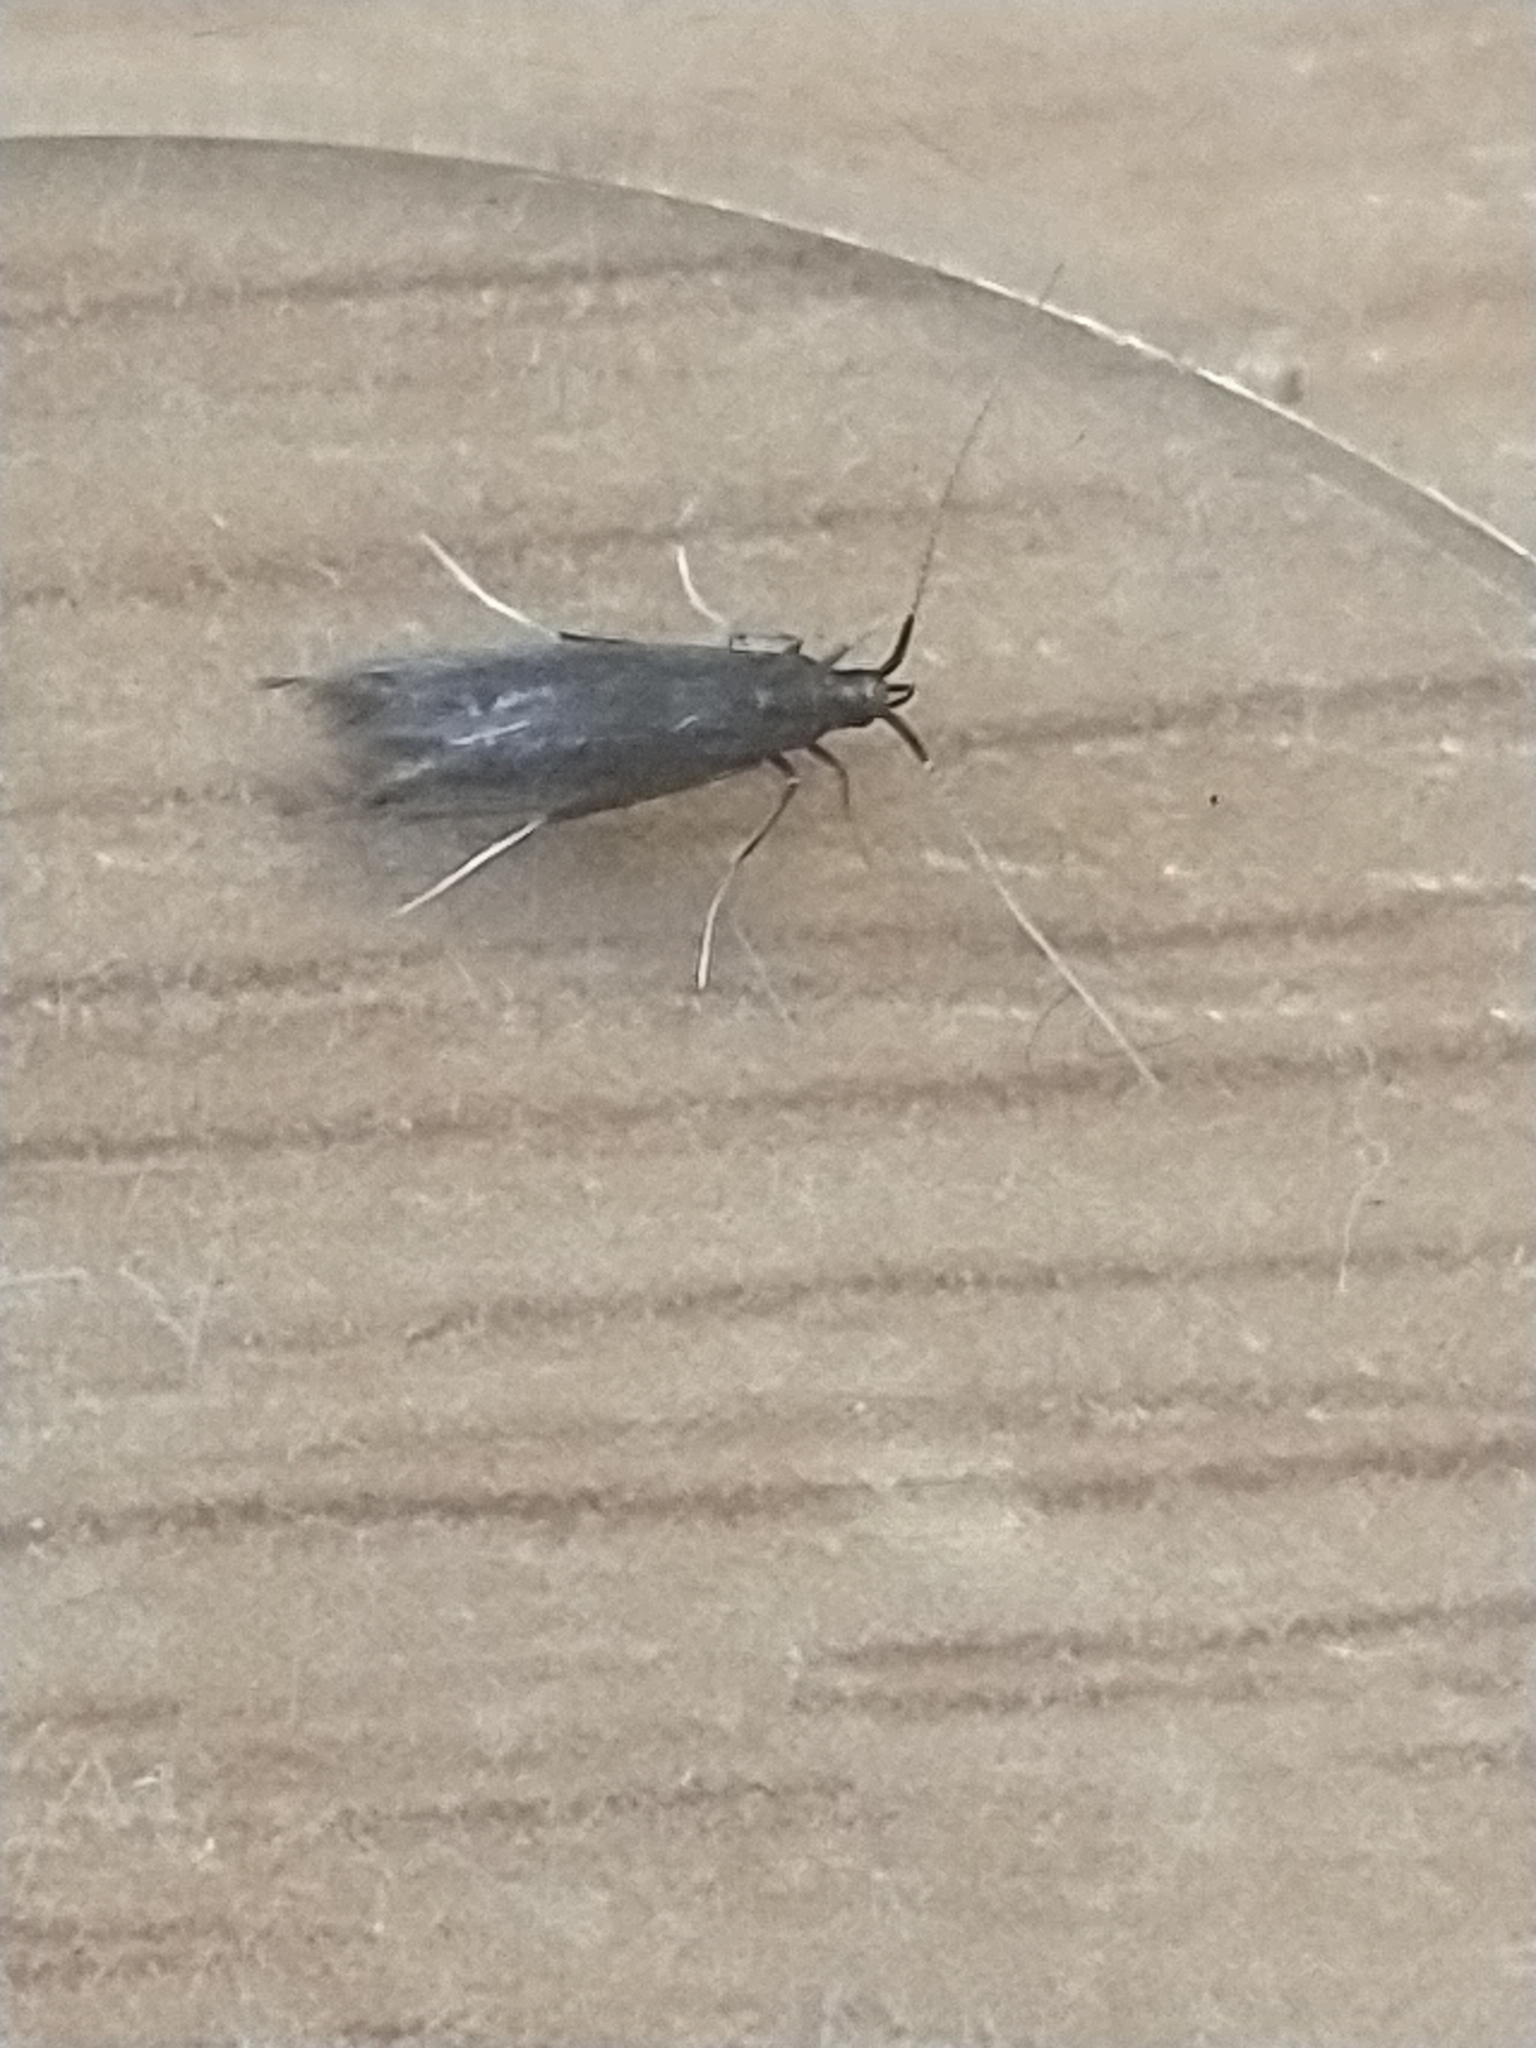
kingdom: Animalia
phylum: Arthropoda
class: Insecta
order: Lepidoptera
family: Coleophoridae
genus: Coleophora
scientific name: Coleophora albitarsella
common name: White-legged case-bearer
